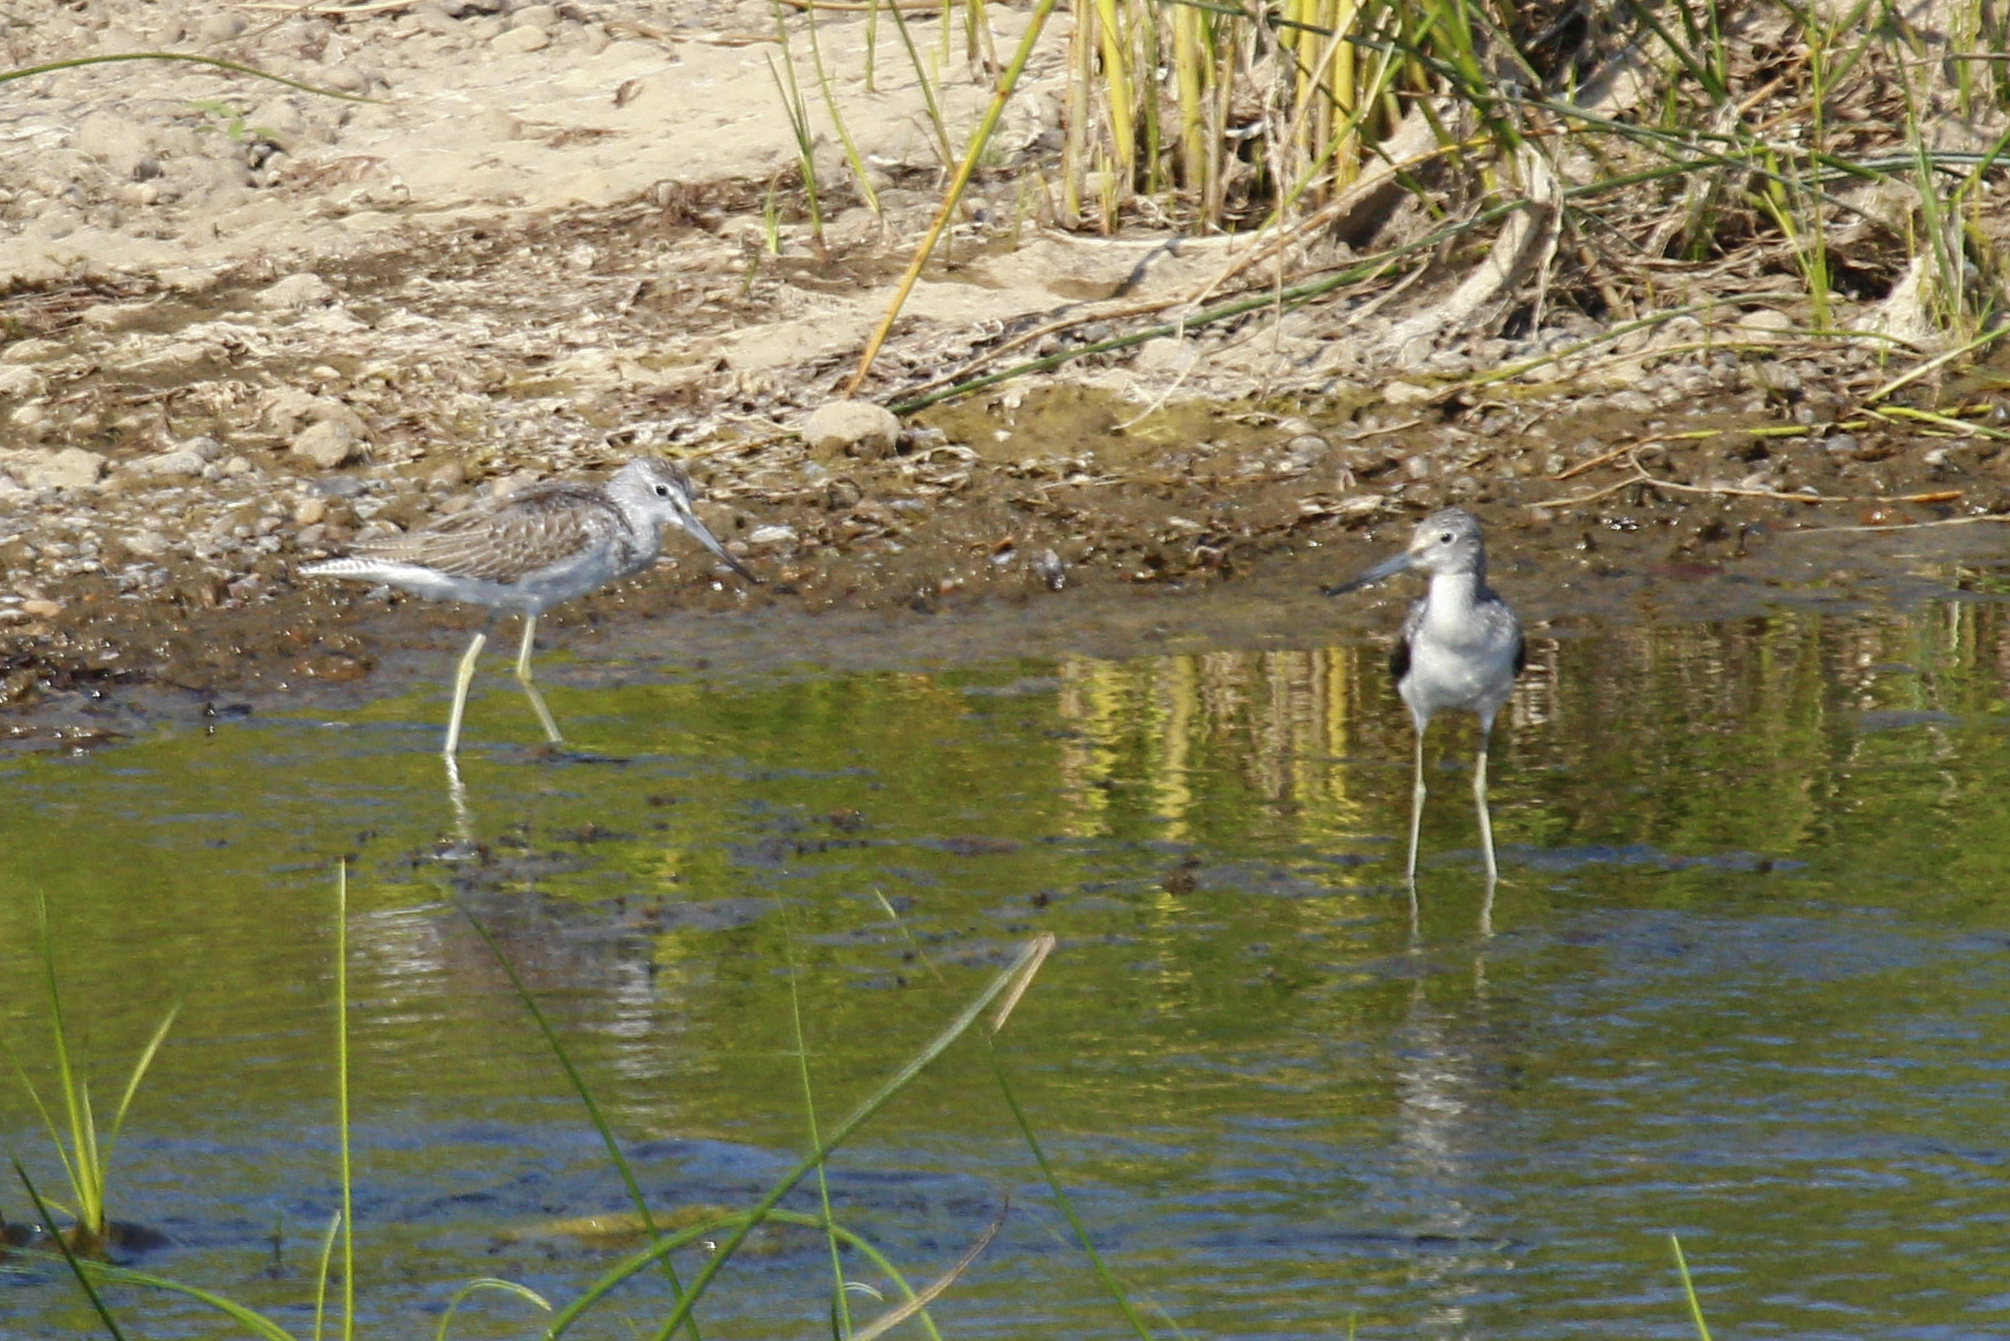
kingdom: Animalia
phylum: Chordata
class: Aves
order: Charadriiformes
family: Scolopacidae
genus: Tringa
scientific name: Tringa nebularia
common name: Common greenshank
